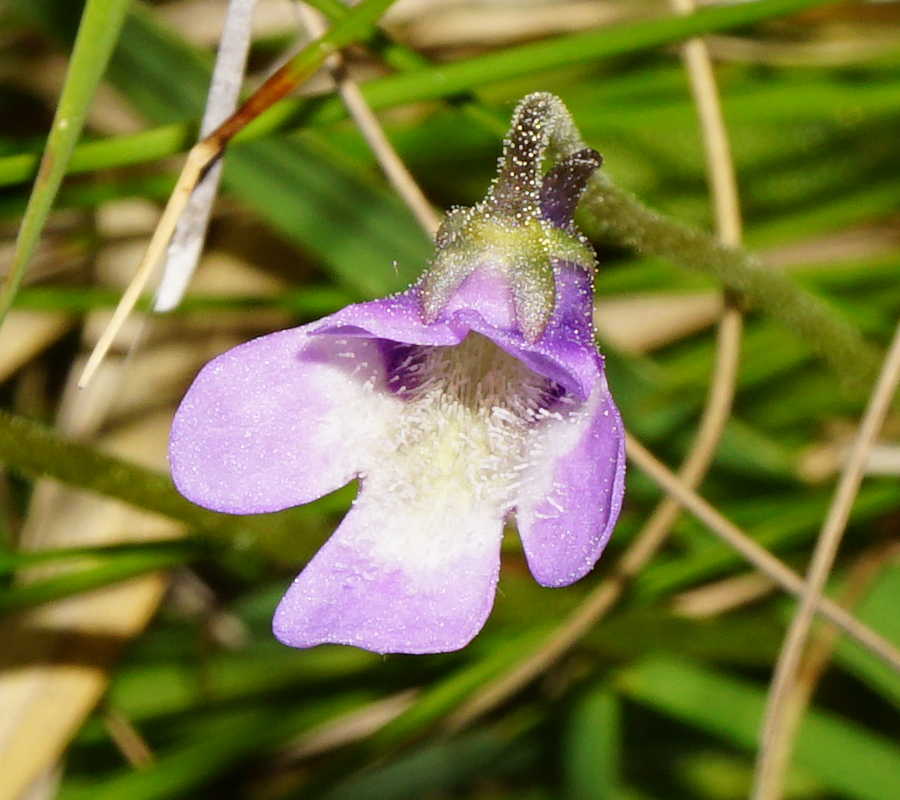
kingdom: Plantae
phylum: Tracheophyta
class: Magnoliopsida
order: Lamiales
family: Lentibulariaceae
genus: Pinguicula
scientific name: Pinguicula vulgaris
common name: Common butterwort
